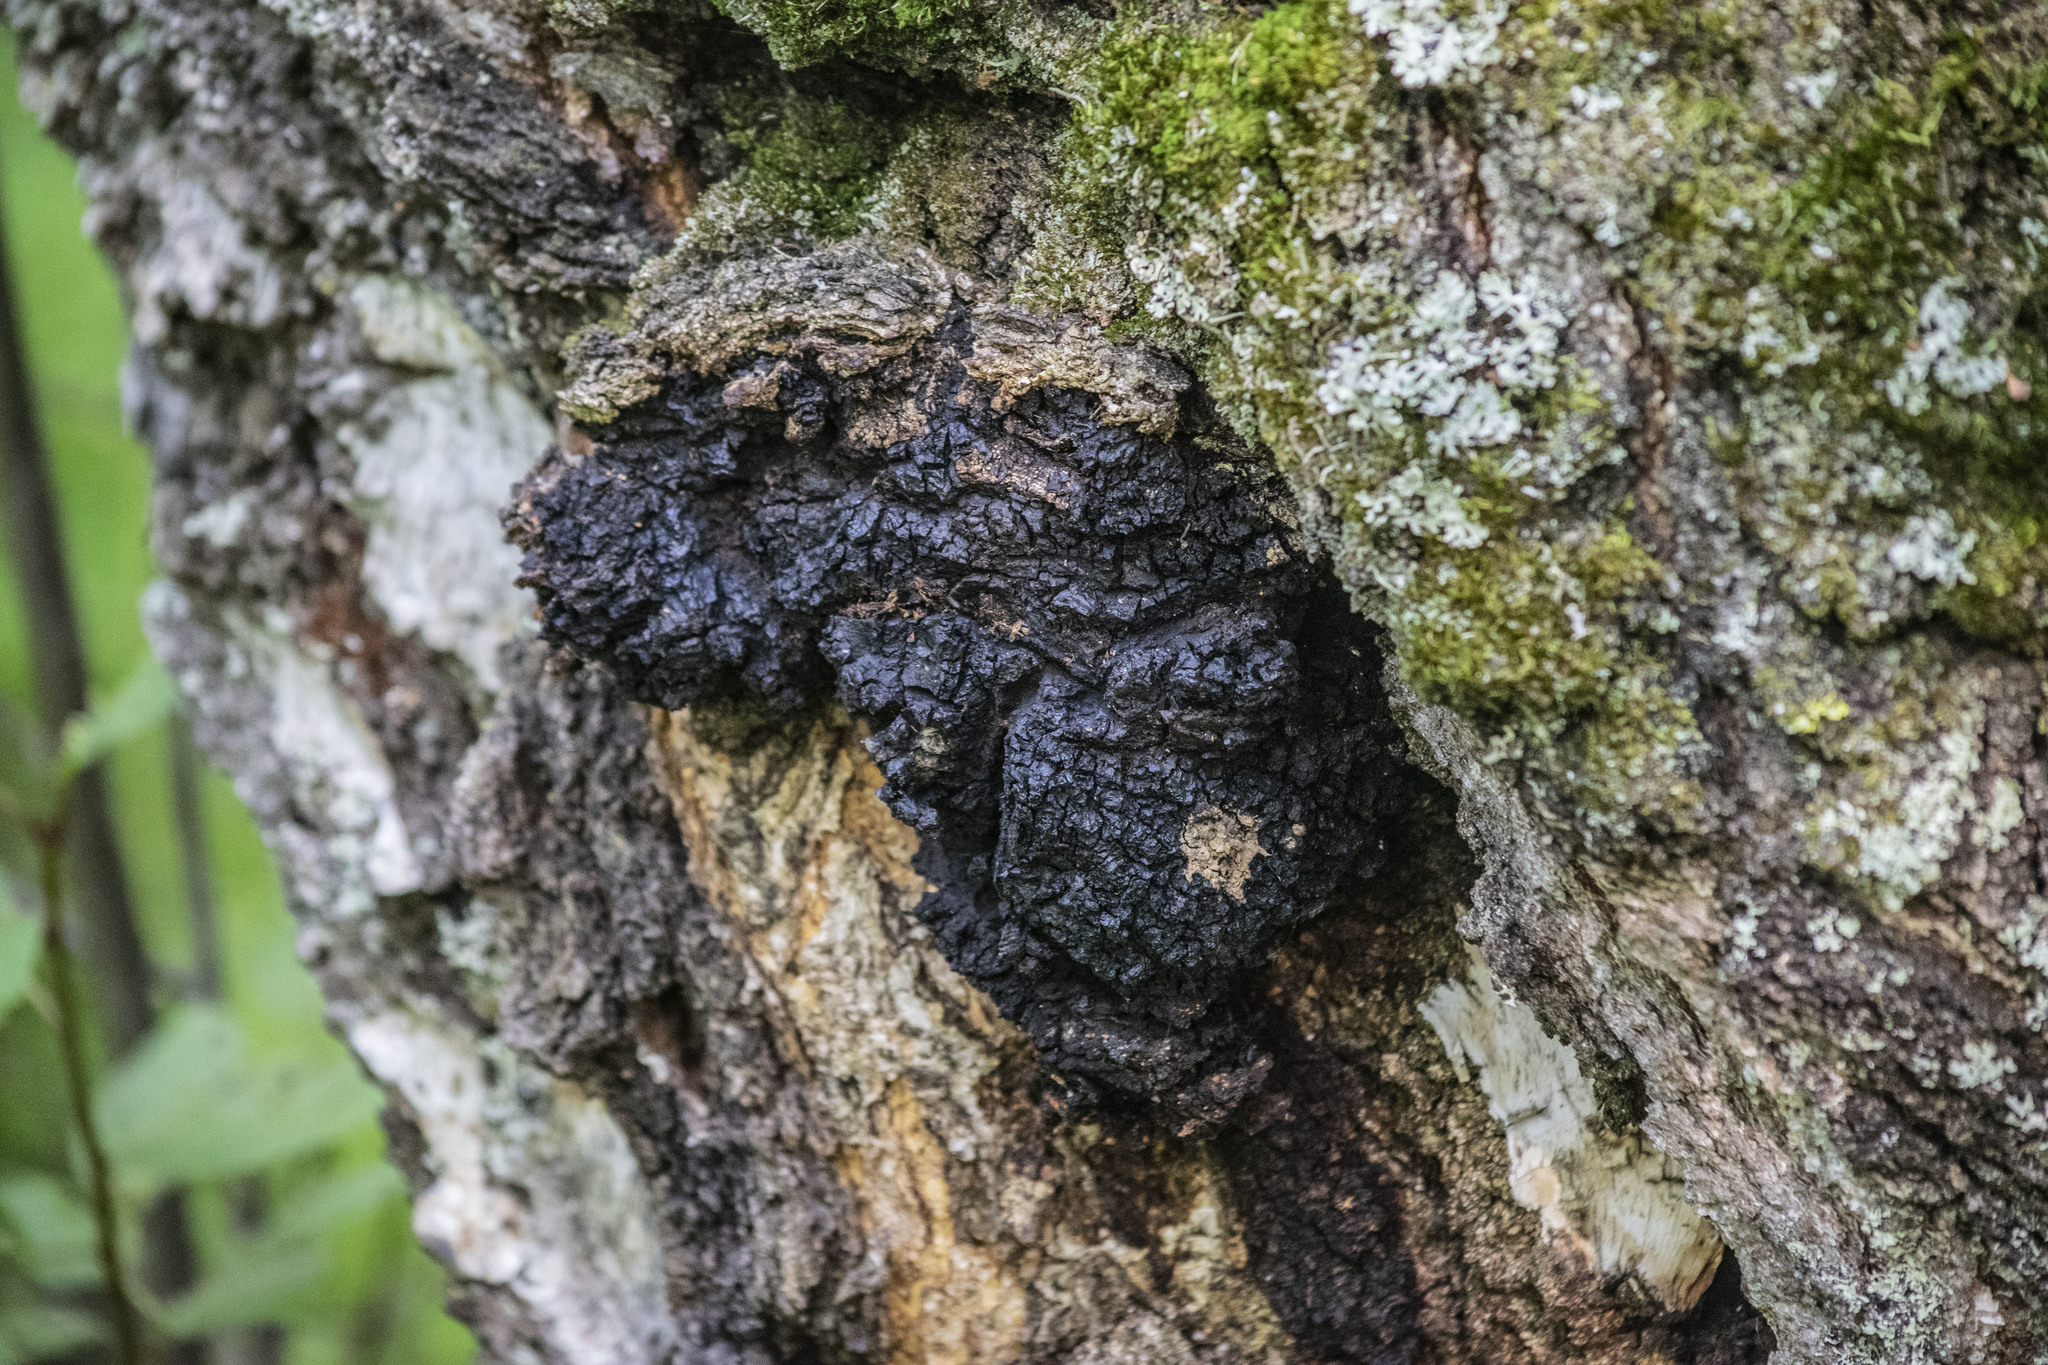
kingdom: Fungi
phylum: Basidiomycota
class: Agaricomycetes
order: Hymenochaetales
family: Hymenochaetaceae
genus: Inonotus
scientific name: Inonotus obliquus
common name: Chaga
